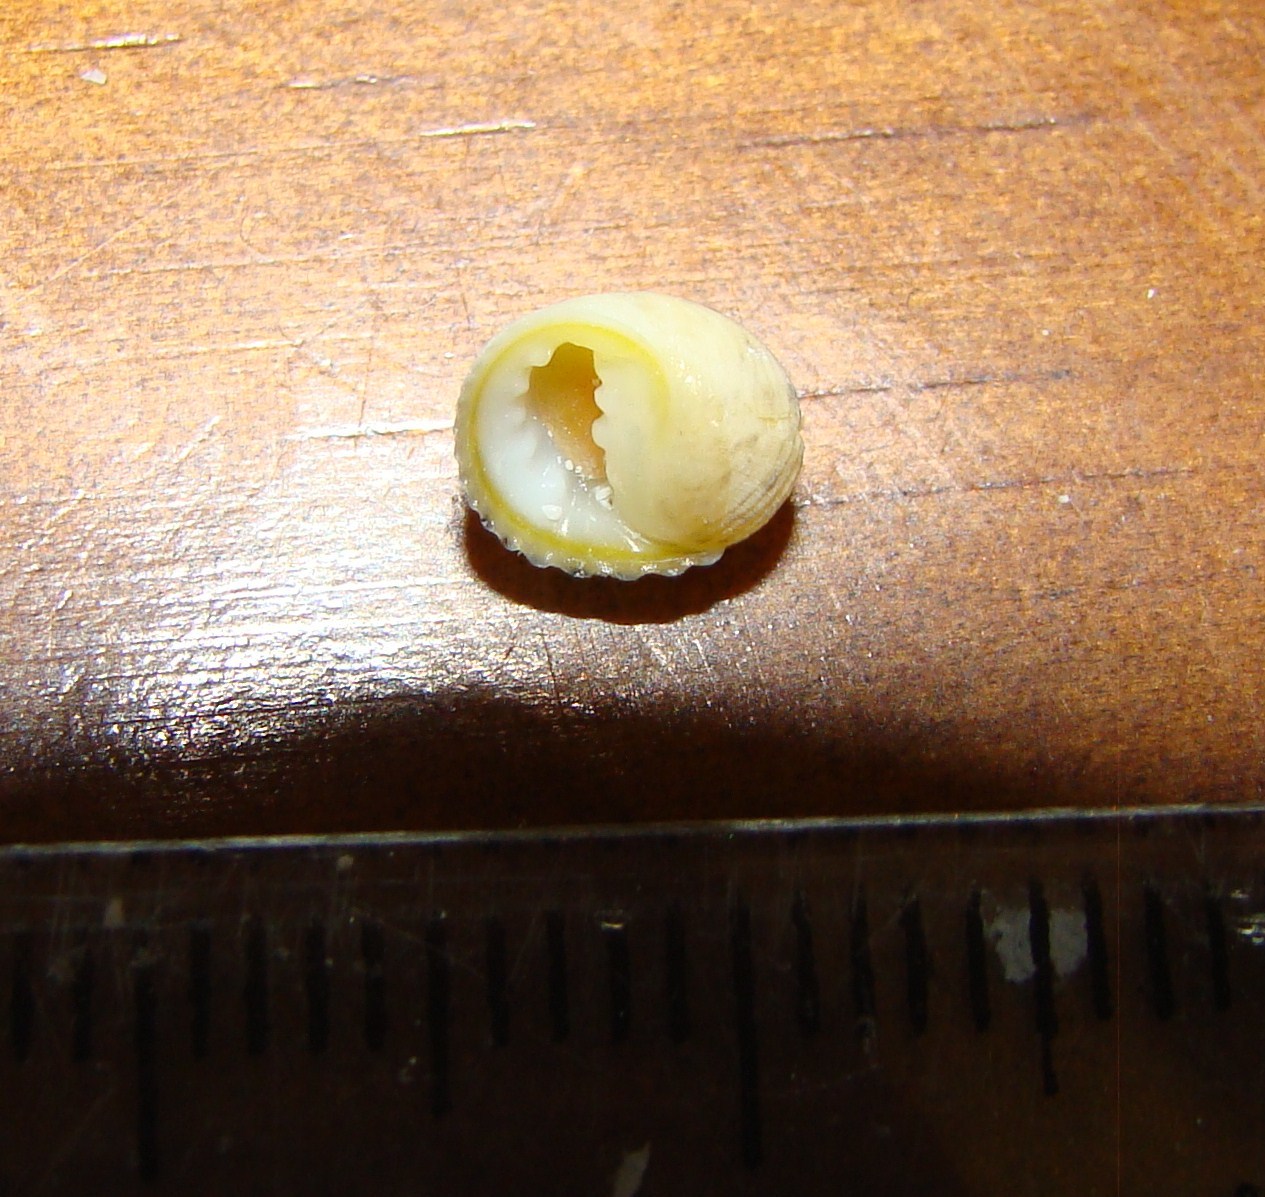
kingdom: Animalia
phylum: Mollusca
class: Gastropoda
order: Cycloneritida
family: Neritidae
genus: Nerita
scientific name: Nerita plicata
